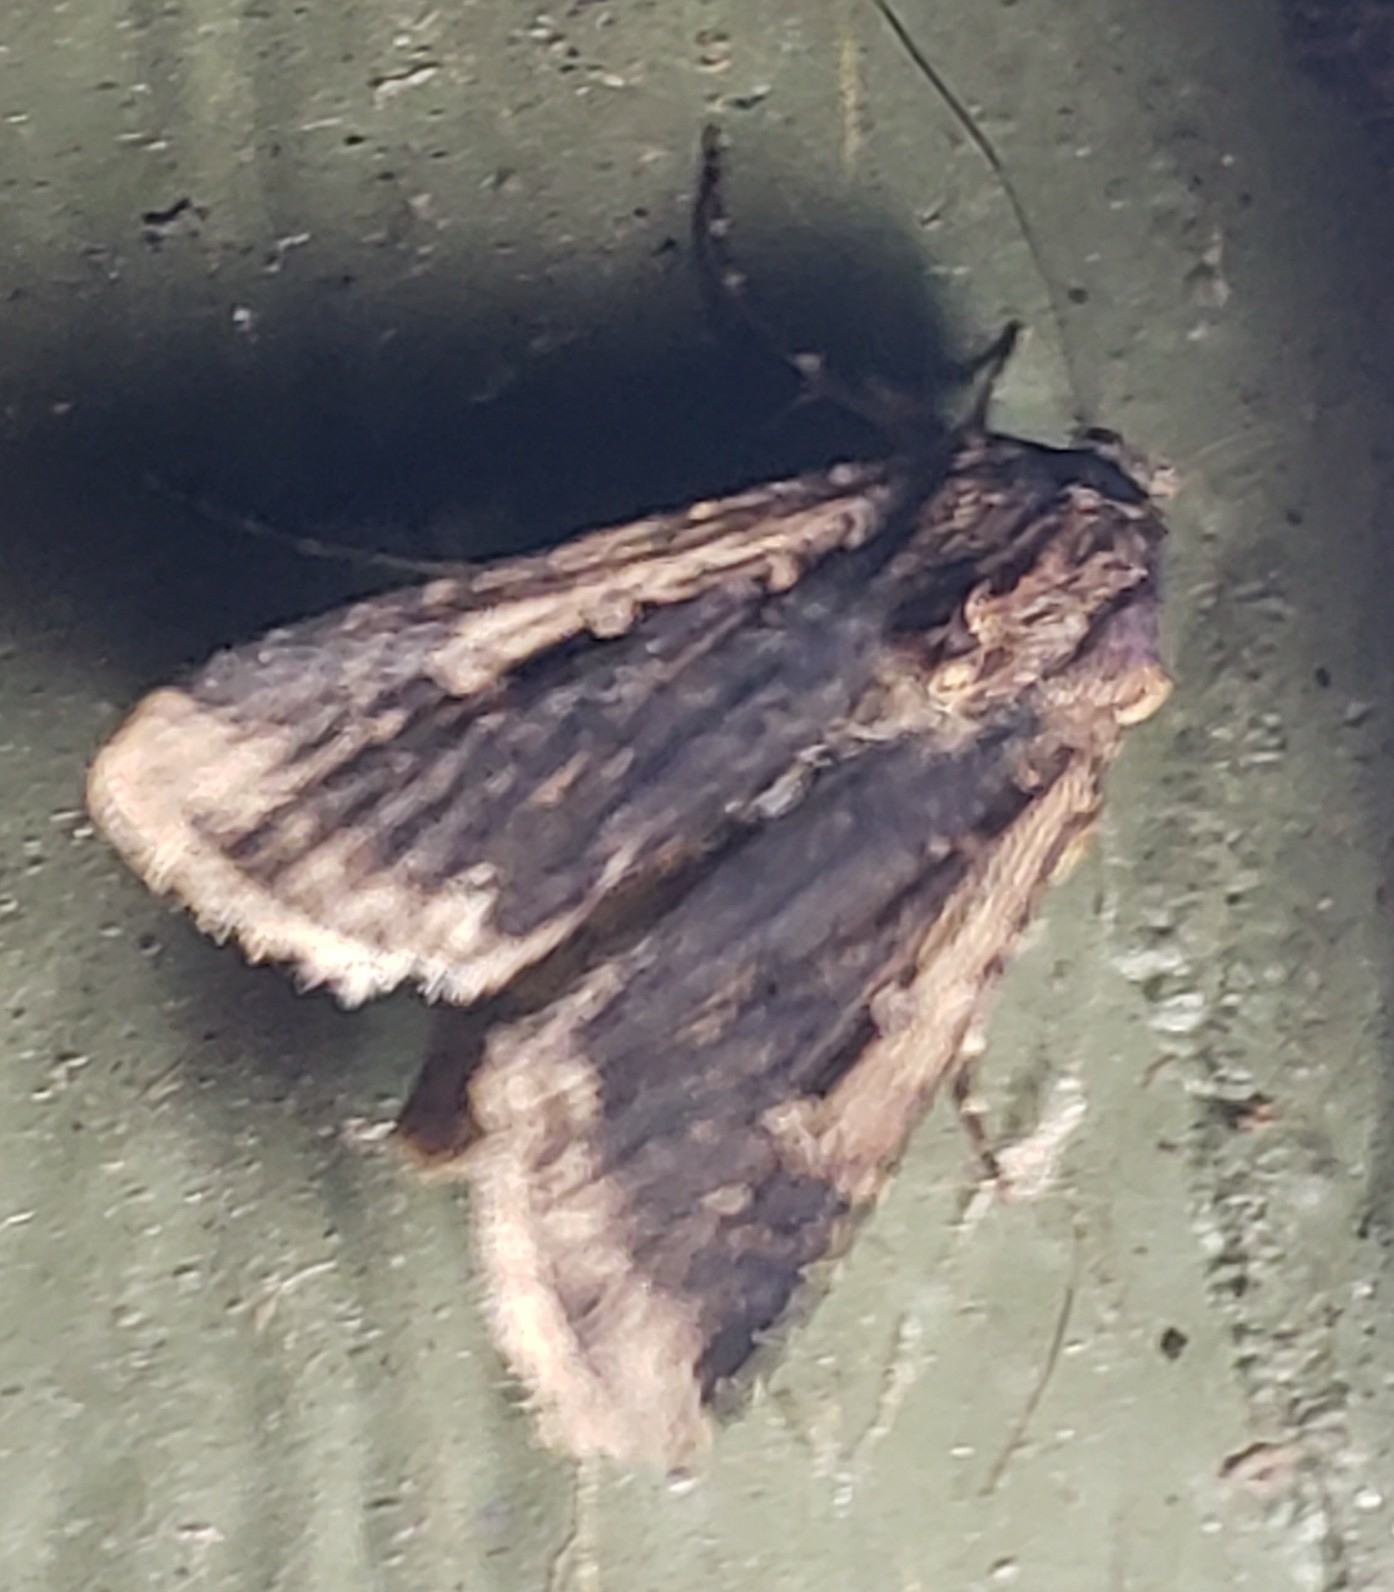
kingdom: Animalia
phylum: Arthropoda
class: Insecta
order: Lepidoptera
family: Noctuidae
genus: Feltia
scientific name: Feltia subterranea
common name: Granulate cutworm
